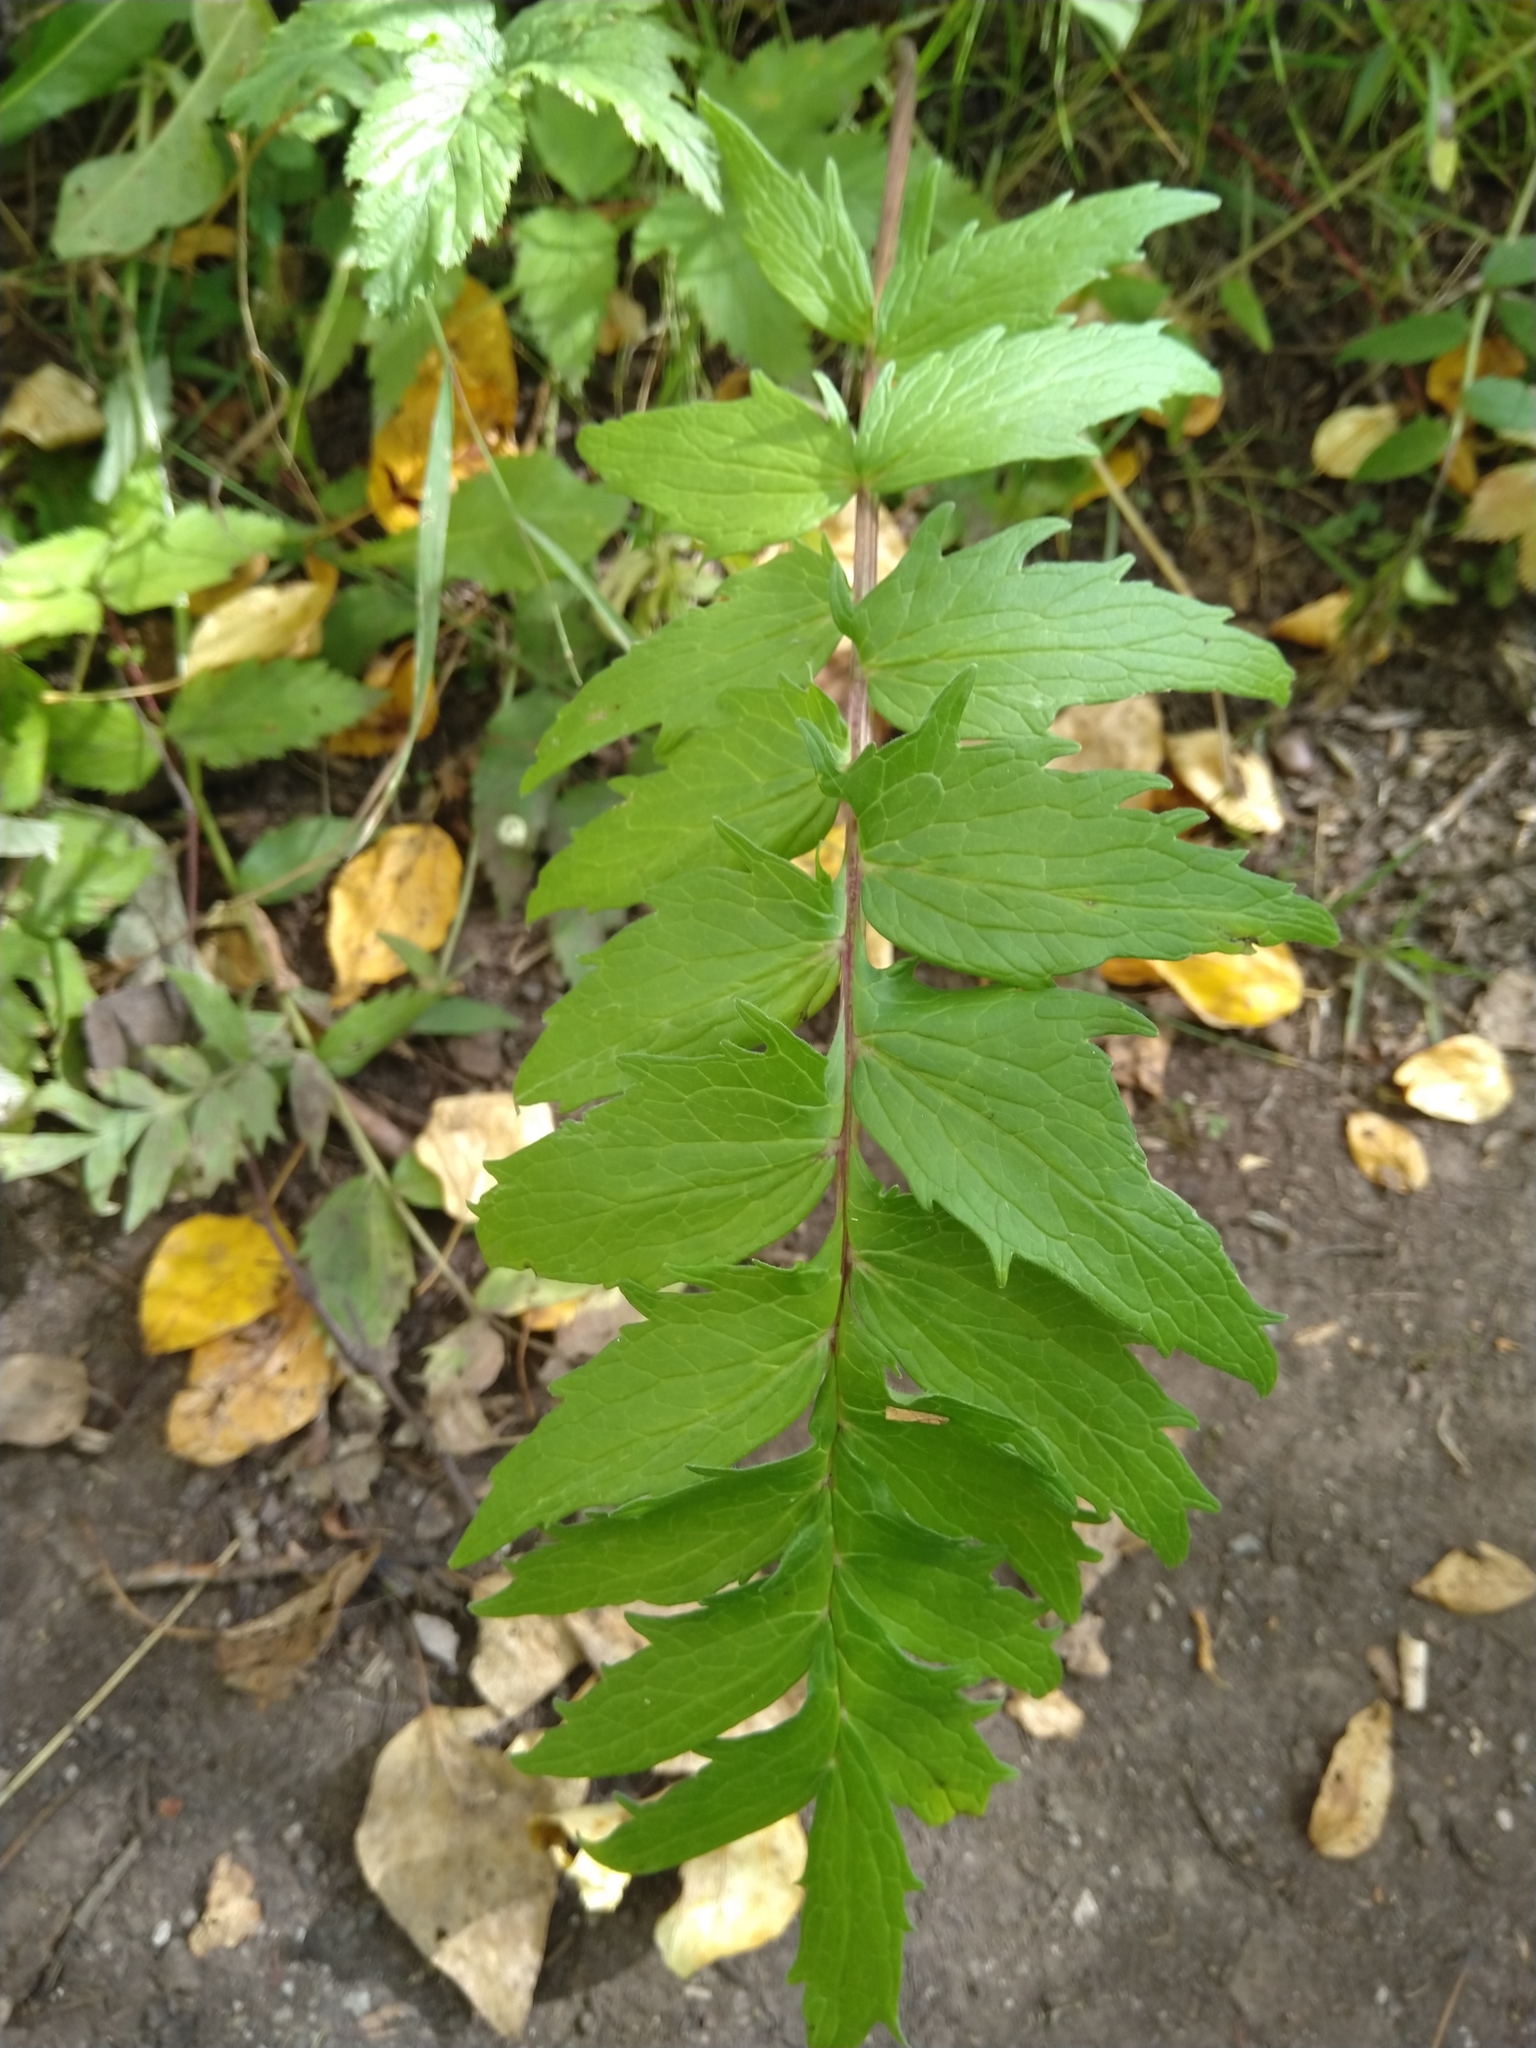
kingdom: Plantae
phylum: Tracheophyta
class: Magnoliopsida
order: Dipsacales
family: Caprifoliaceae
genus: Valeriana
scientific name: Valeriana officinalis
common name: Common valerian
